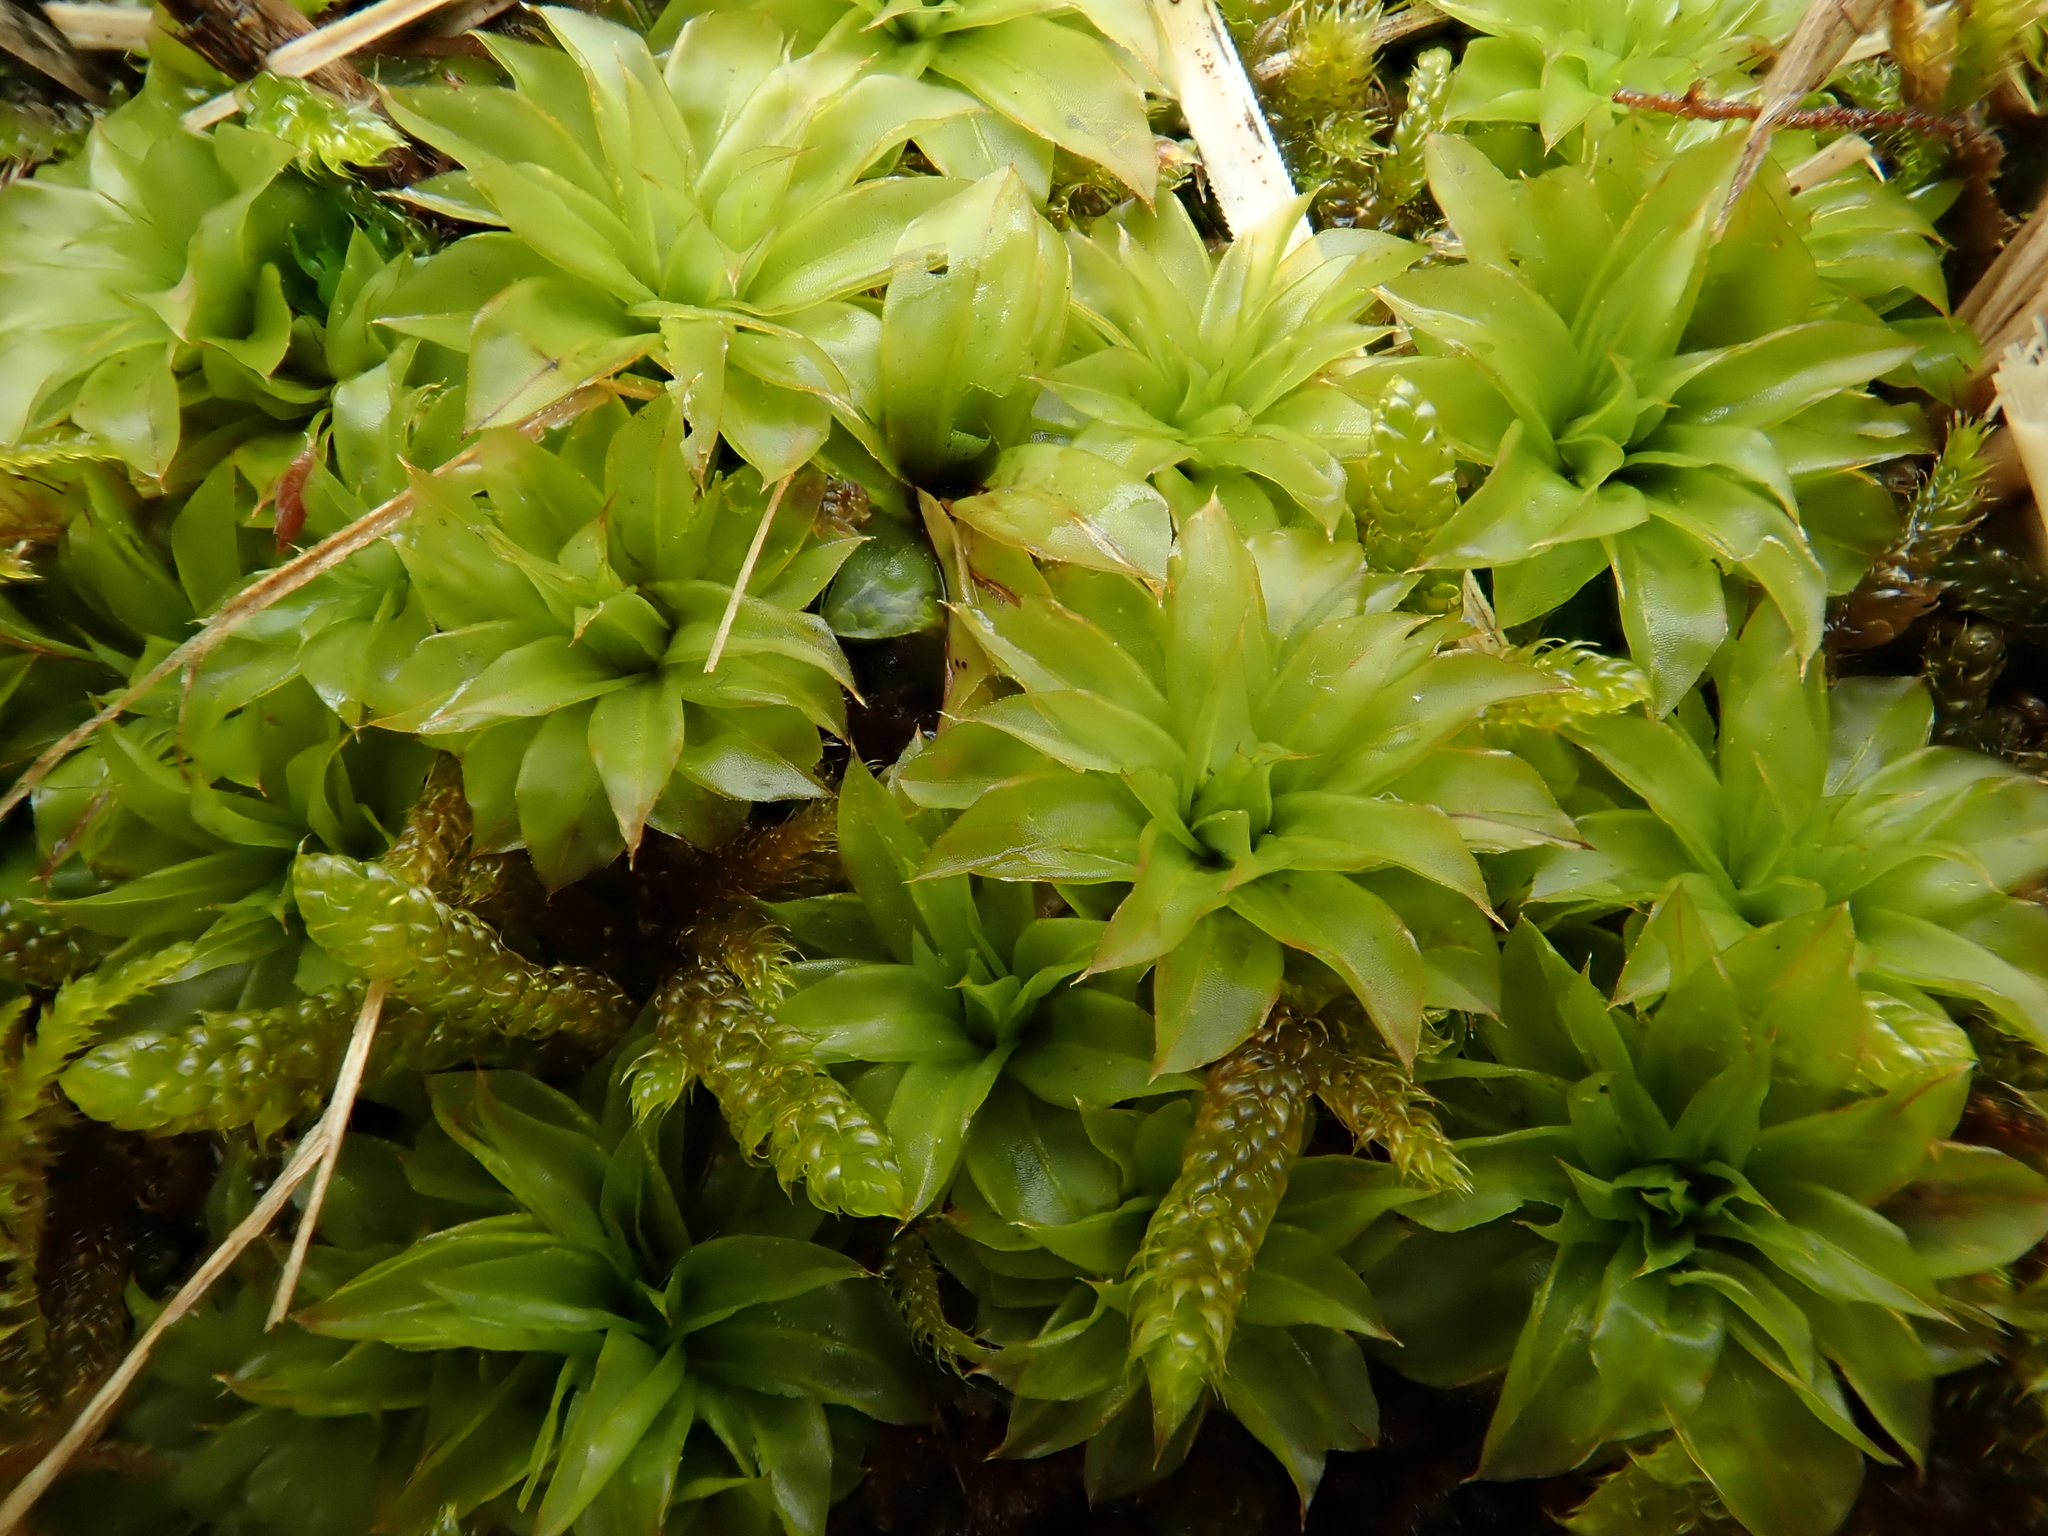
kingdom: Plantae
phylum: Bryophyta
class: Bryopsida
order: Bryales
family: Bryaceae
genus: Rhodobryum
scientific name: Rhodobryum ontariense
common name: Ontario rhodobryum moss
